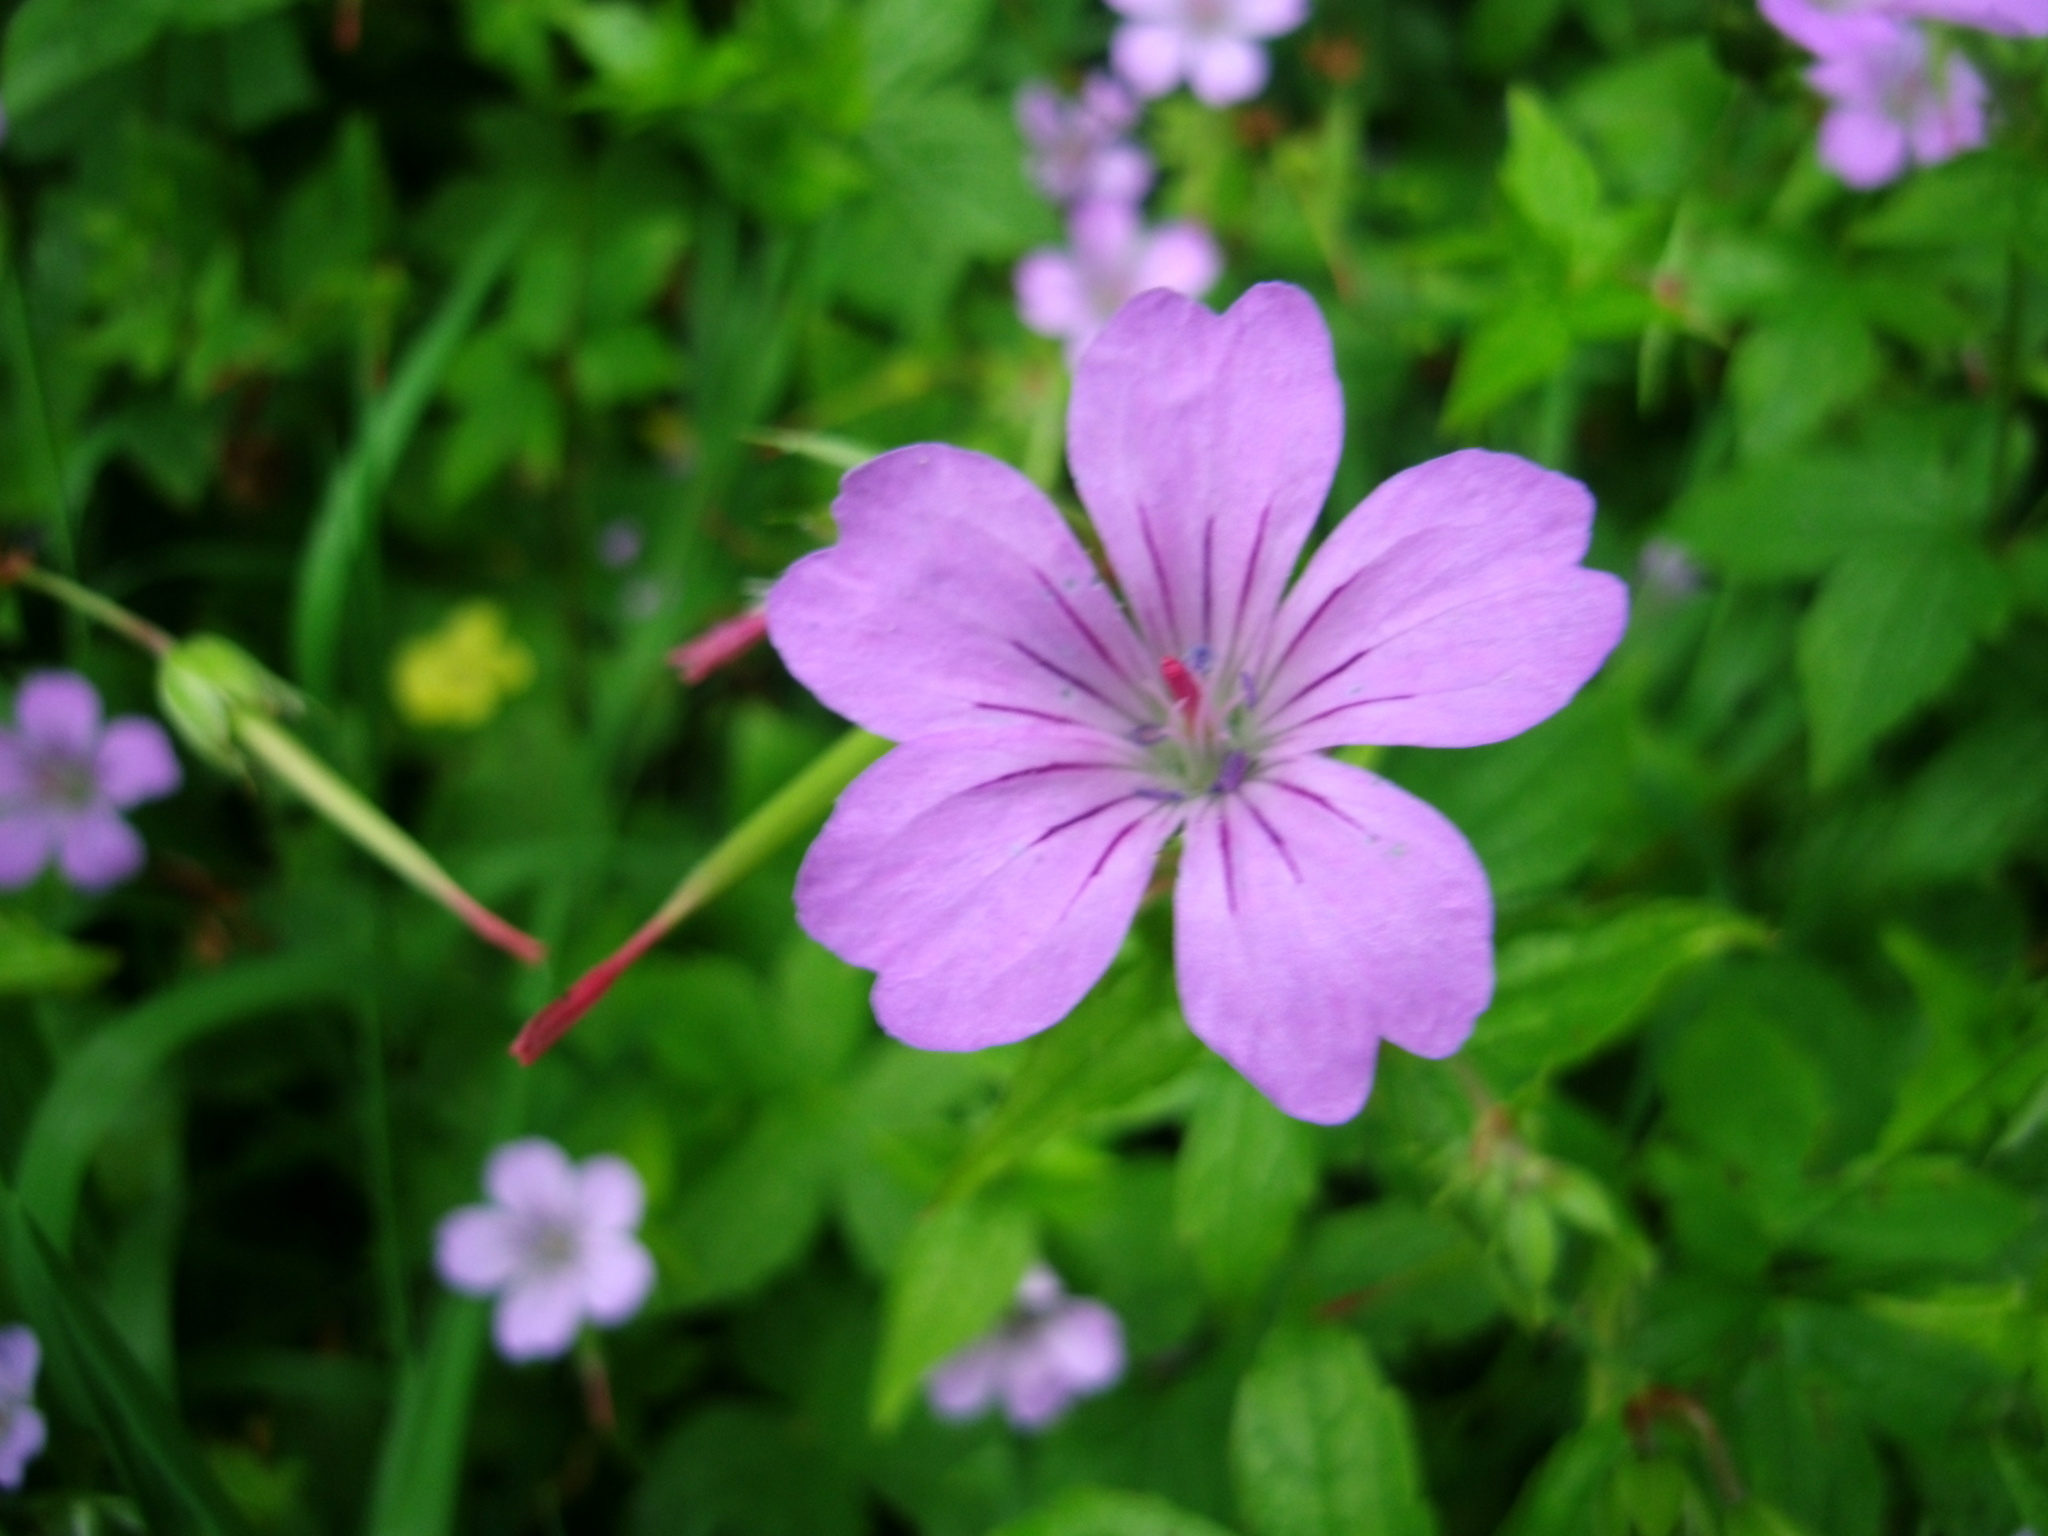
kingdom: Plantae
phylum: Tracheophyta
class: Magnoliopsida
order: Geraniales
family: Geraniaceae
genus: Geranium
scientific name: Geranium nodosum
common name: Knotted crane's-bill
